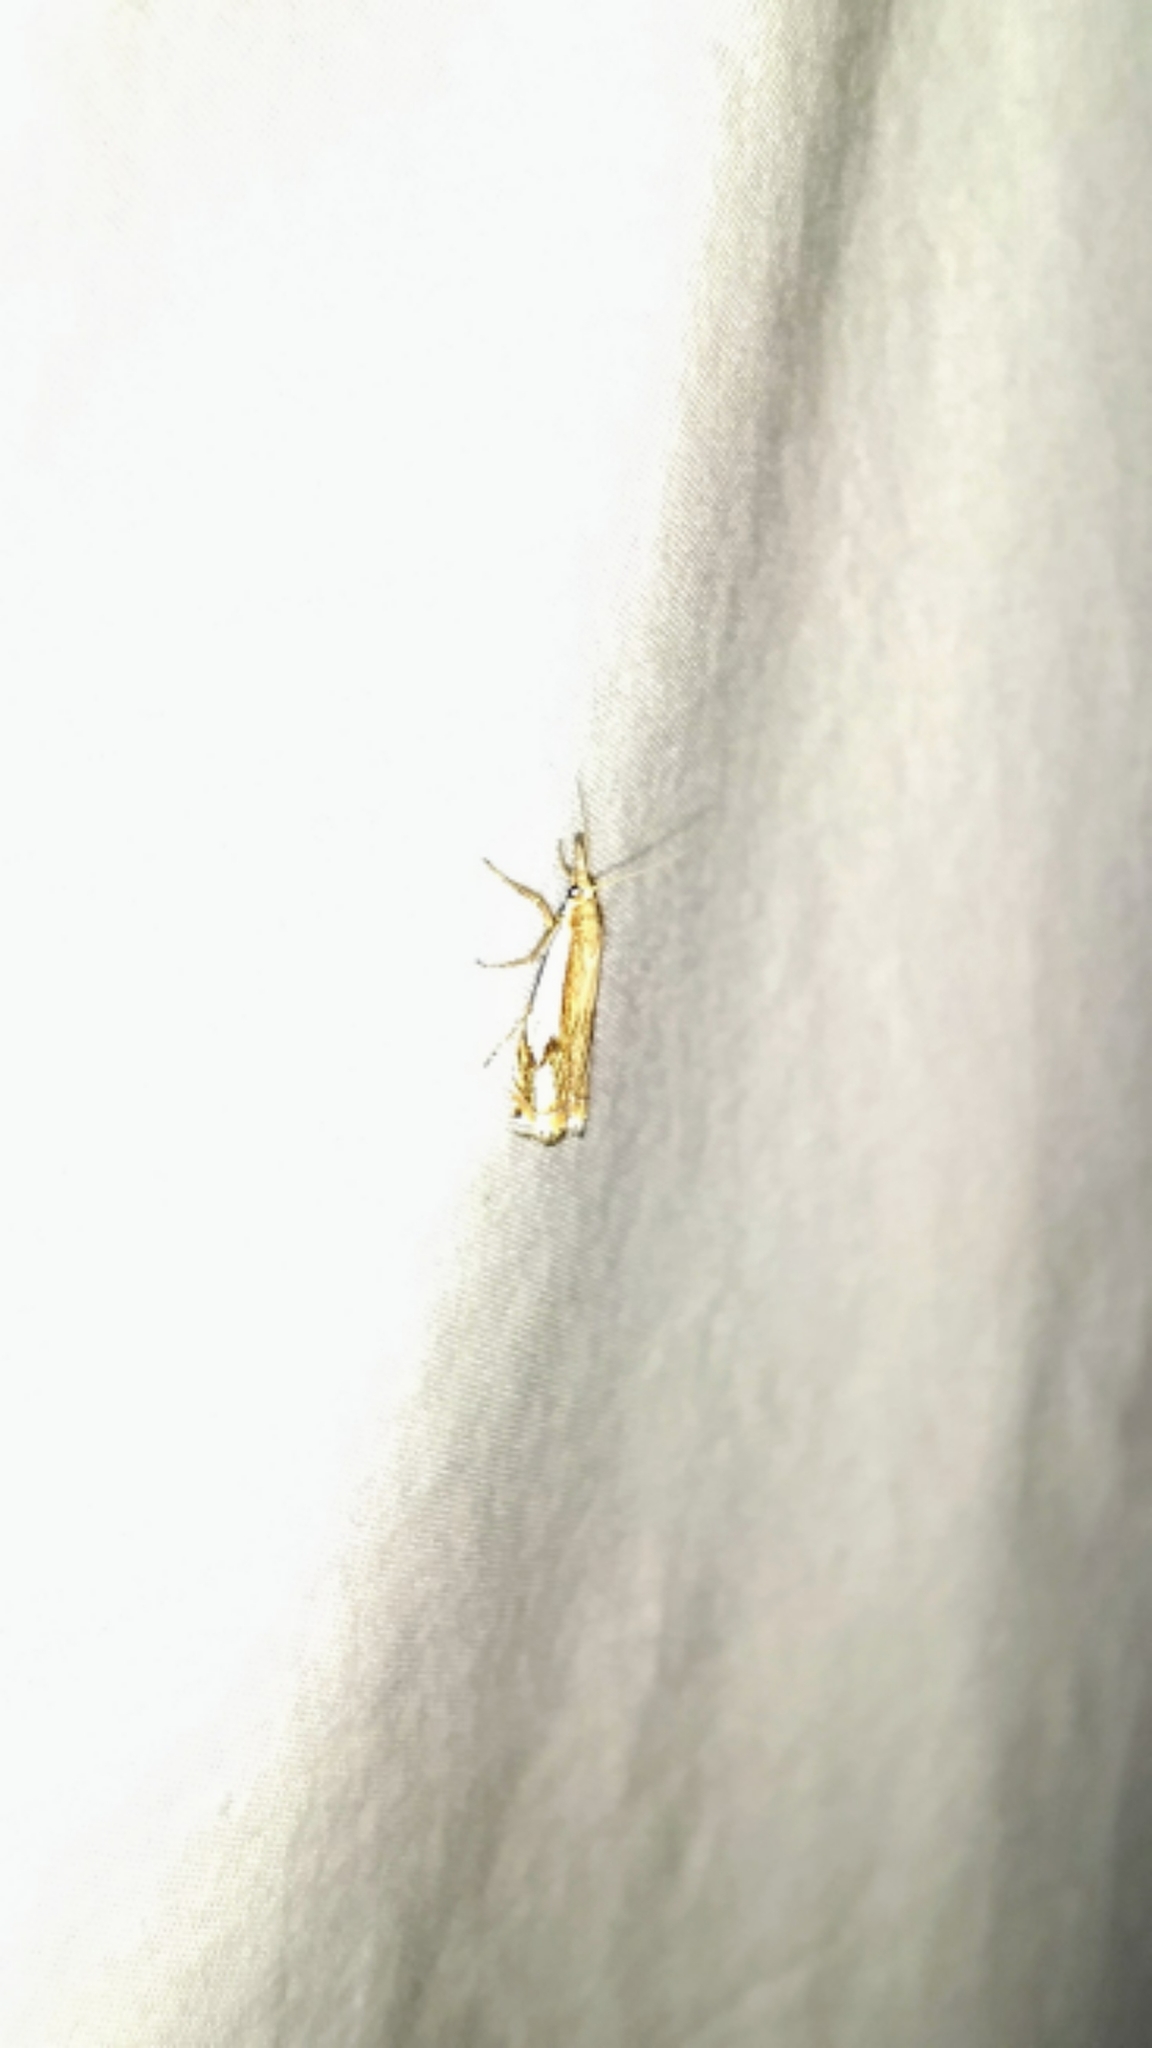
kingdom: Animalia
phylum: Arthropoda
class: Insecta
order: Lepidoptera
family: Crambidae
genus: Crambus
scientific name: Crambus agitatellus
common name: Double-banded grass-veneer
